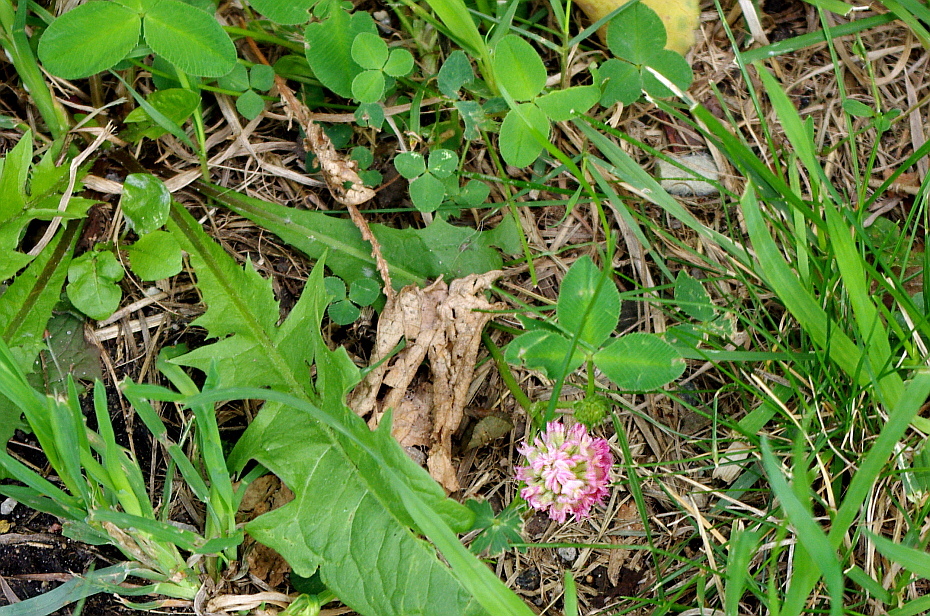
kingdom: Plantae
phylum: Tracheophyta
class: Magnoliopsida
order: Fabales
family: Fabaceae
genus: Trifolium
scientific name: Trifolium hybridum
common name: Alsike clover
